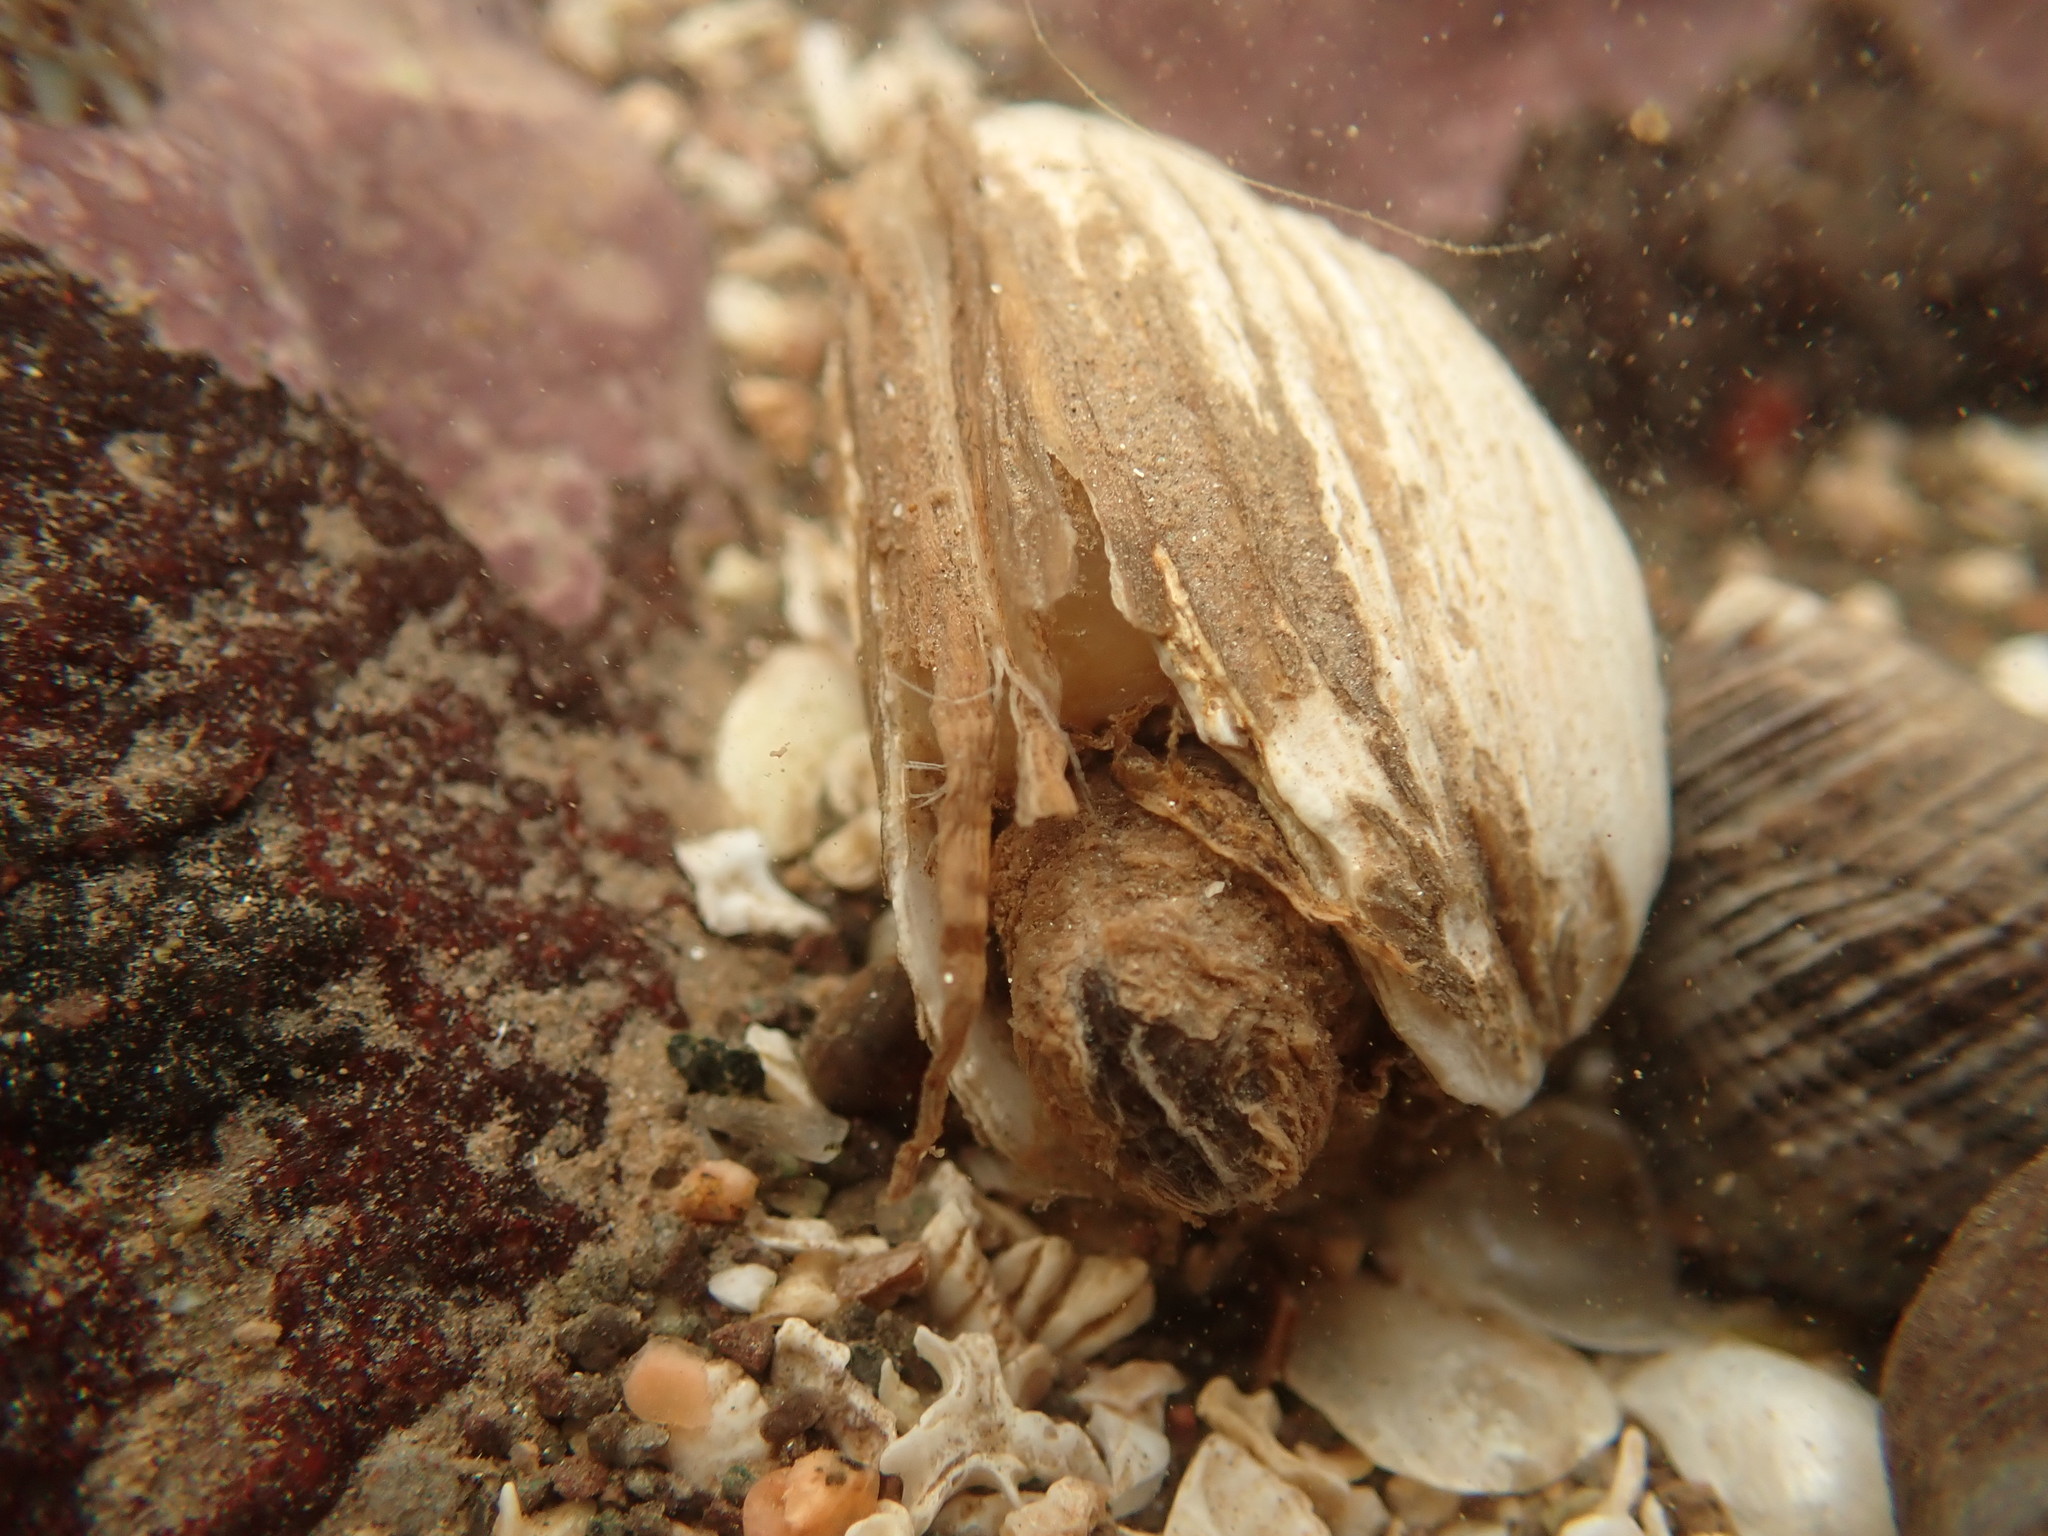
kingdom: Animalia
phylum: Mollusca
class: Bivalvia
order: Myida
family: Myidae
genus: Mya
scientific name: Mya arenaria
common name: Soft-shelled clam
